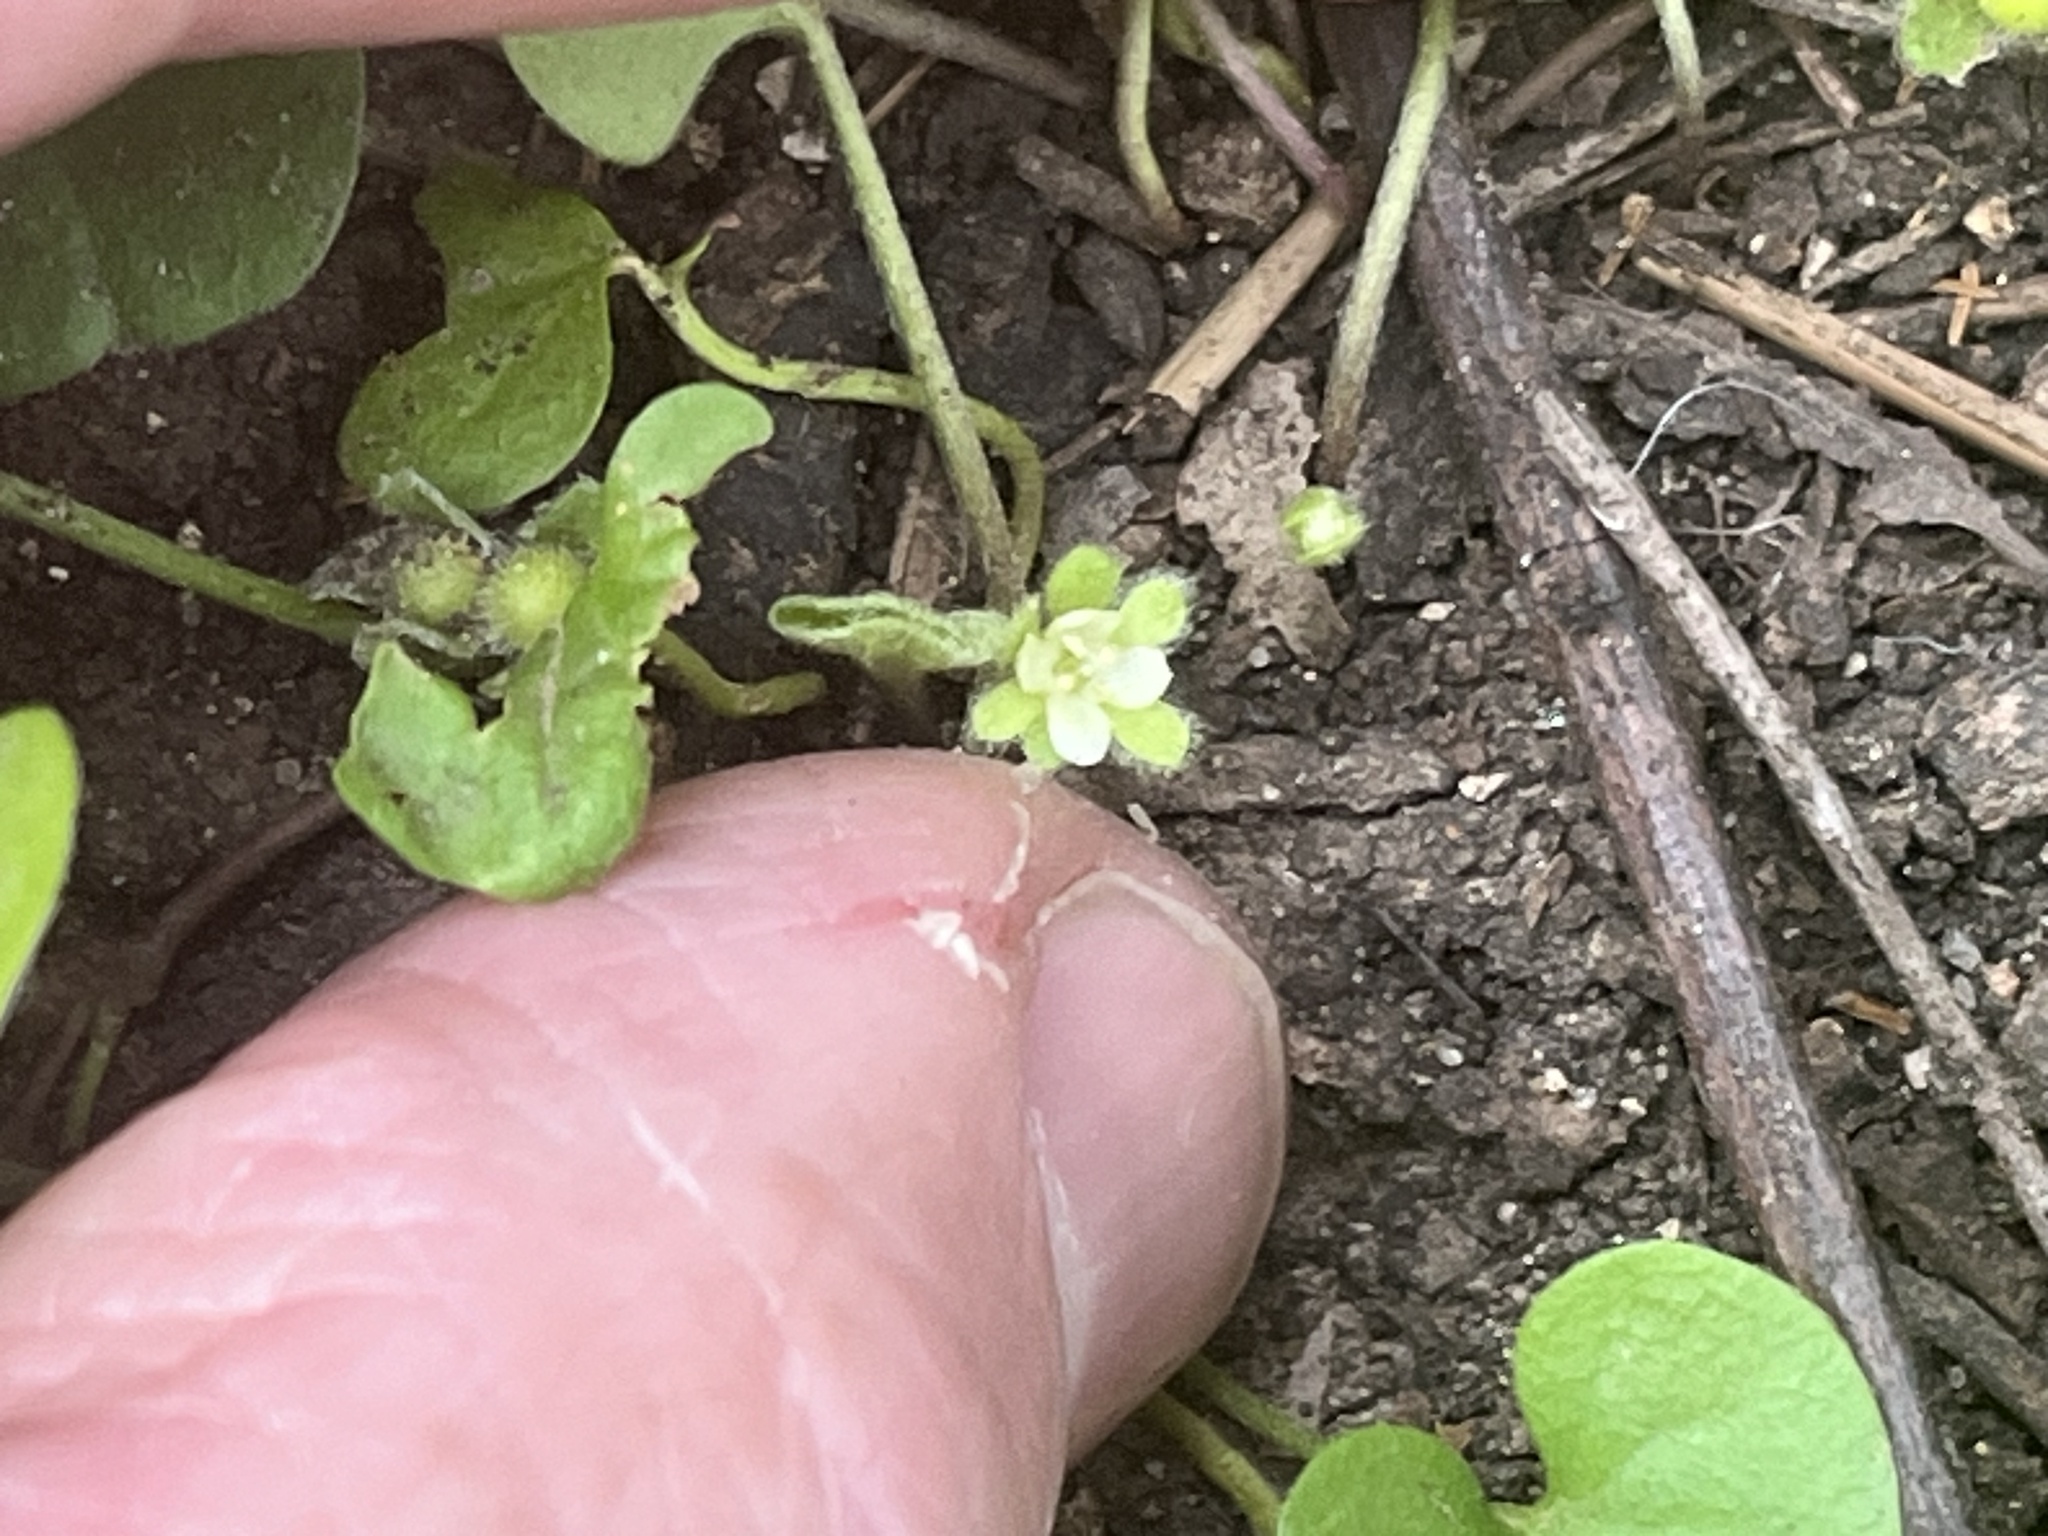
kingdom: Plantae
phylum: Tracheophyta
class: Magnoliopsida
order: Solanales
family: Convolvulaceae
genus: Dichondra
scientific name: Dichondra carolinensis
